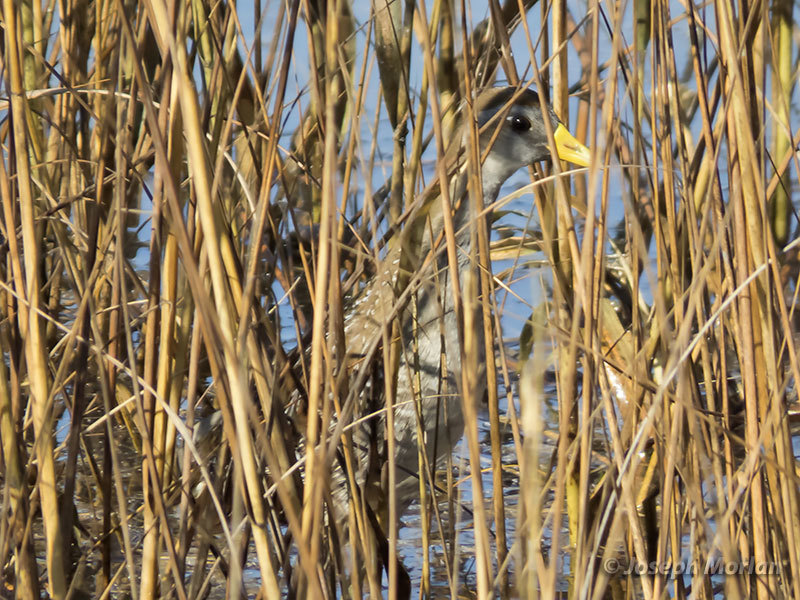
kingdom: Animalia
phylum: Chordata
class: Aves
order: Gruiformes
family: Rallidae
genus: Porzana
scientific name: Porzana carolina
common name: Sora
